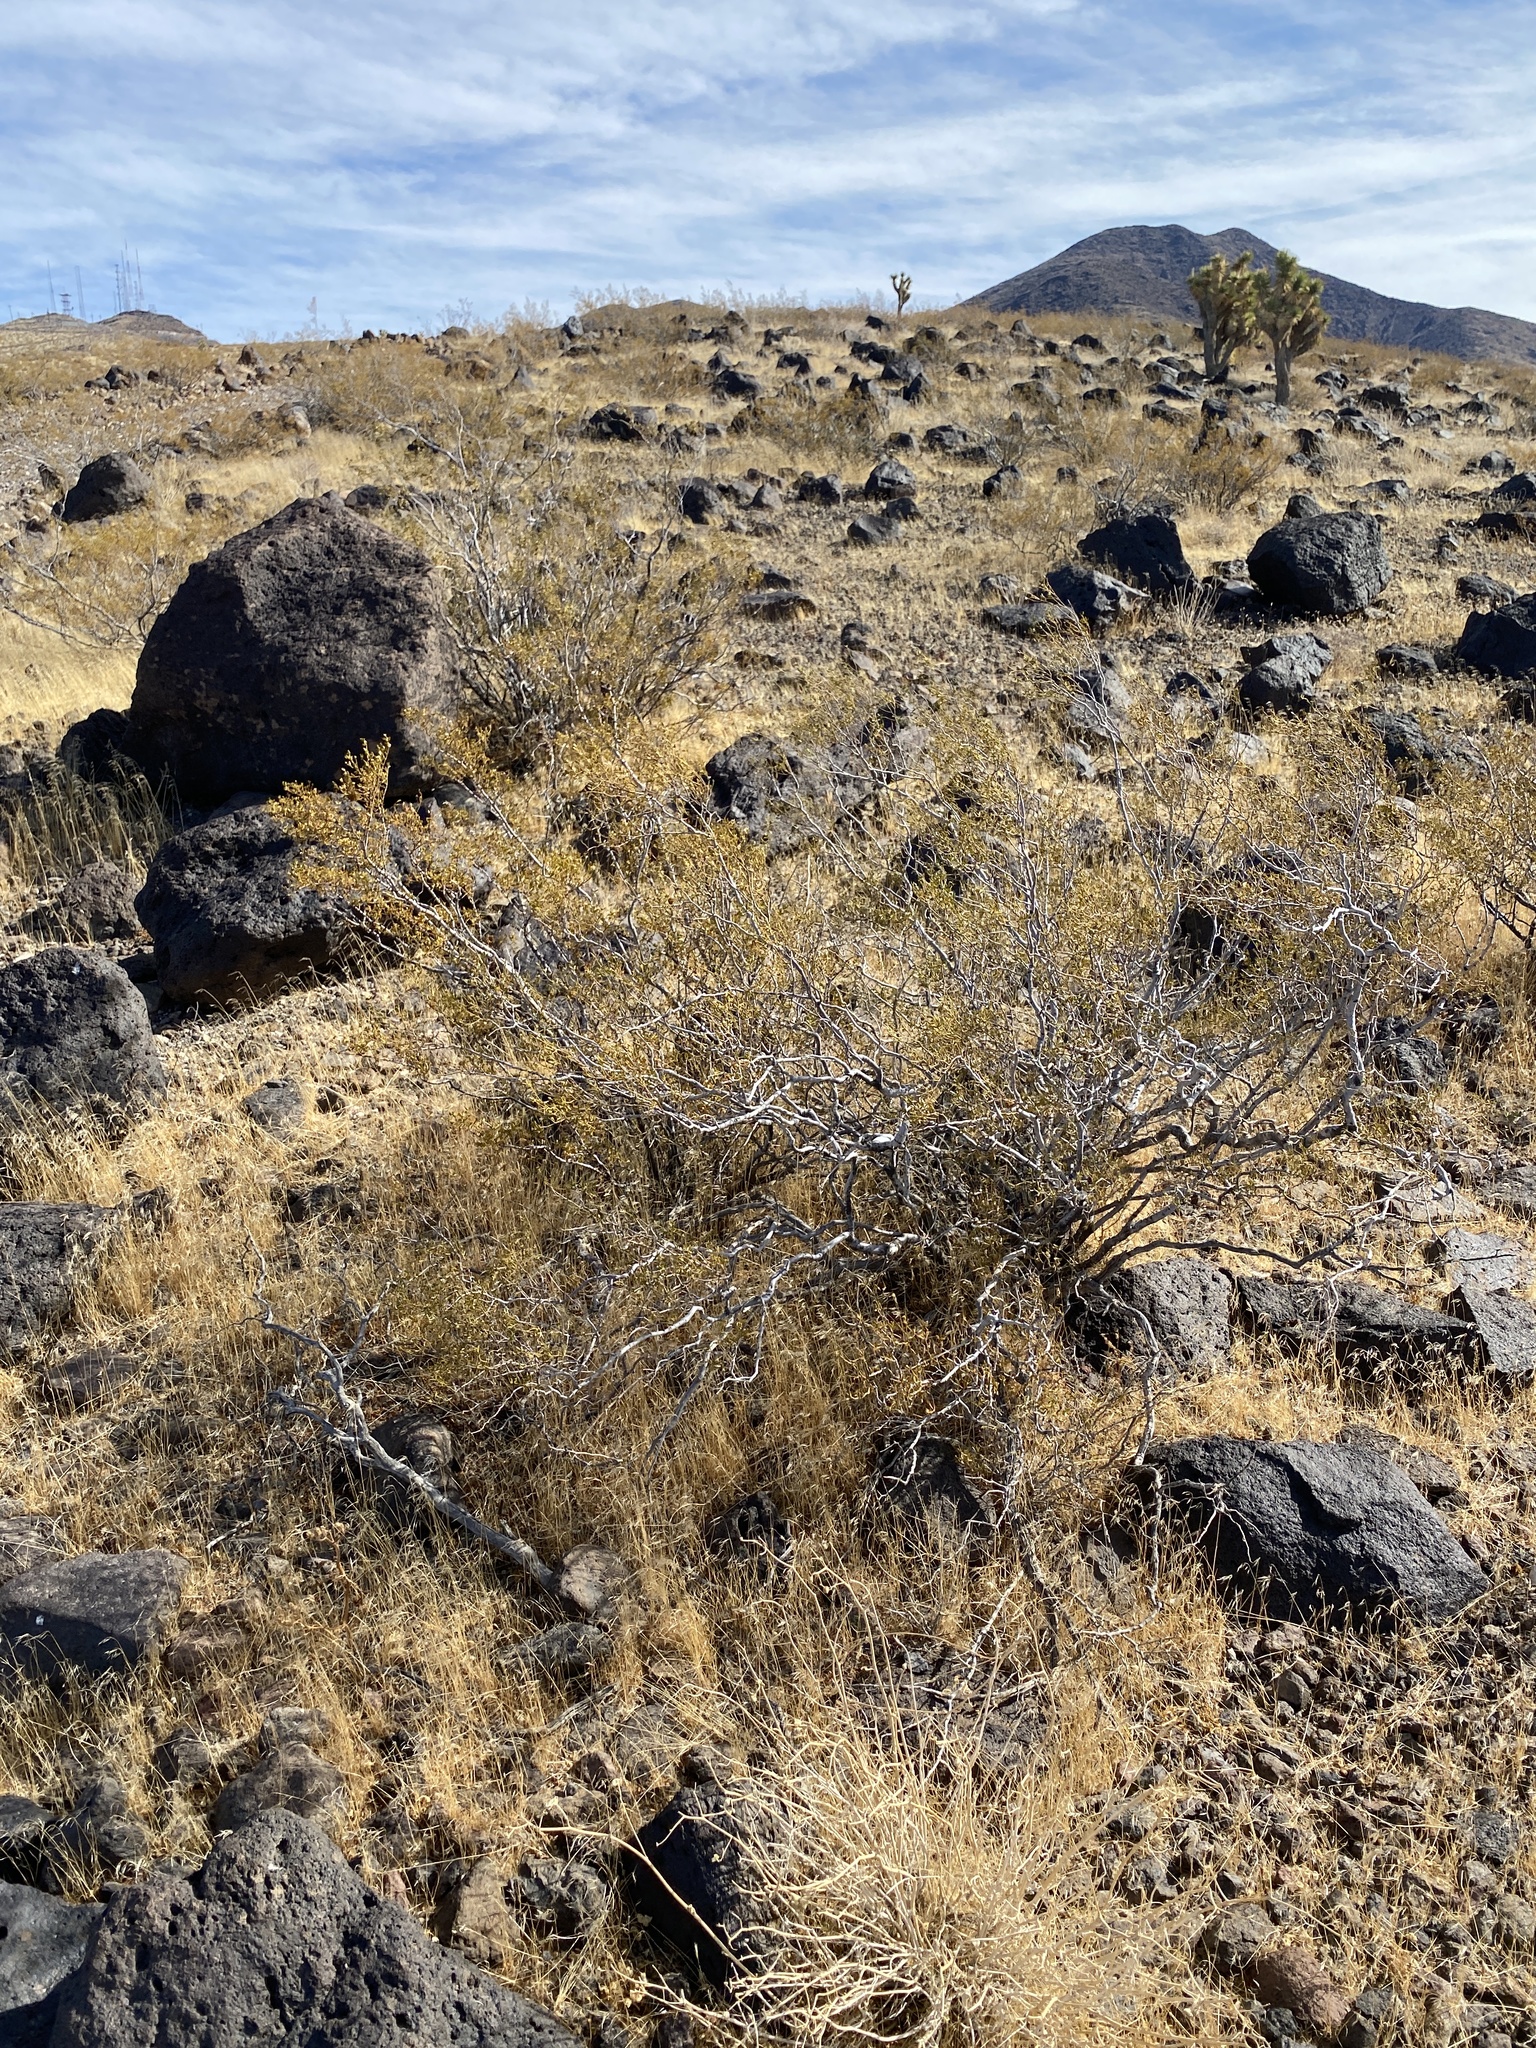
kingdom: Plantae
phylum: Tracheophyta
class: Magnoliopsida
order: Zygophyllales
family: Zygophyllaceae
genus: Larrea
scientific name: Larrea tridentata
